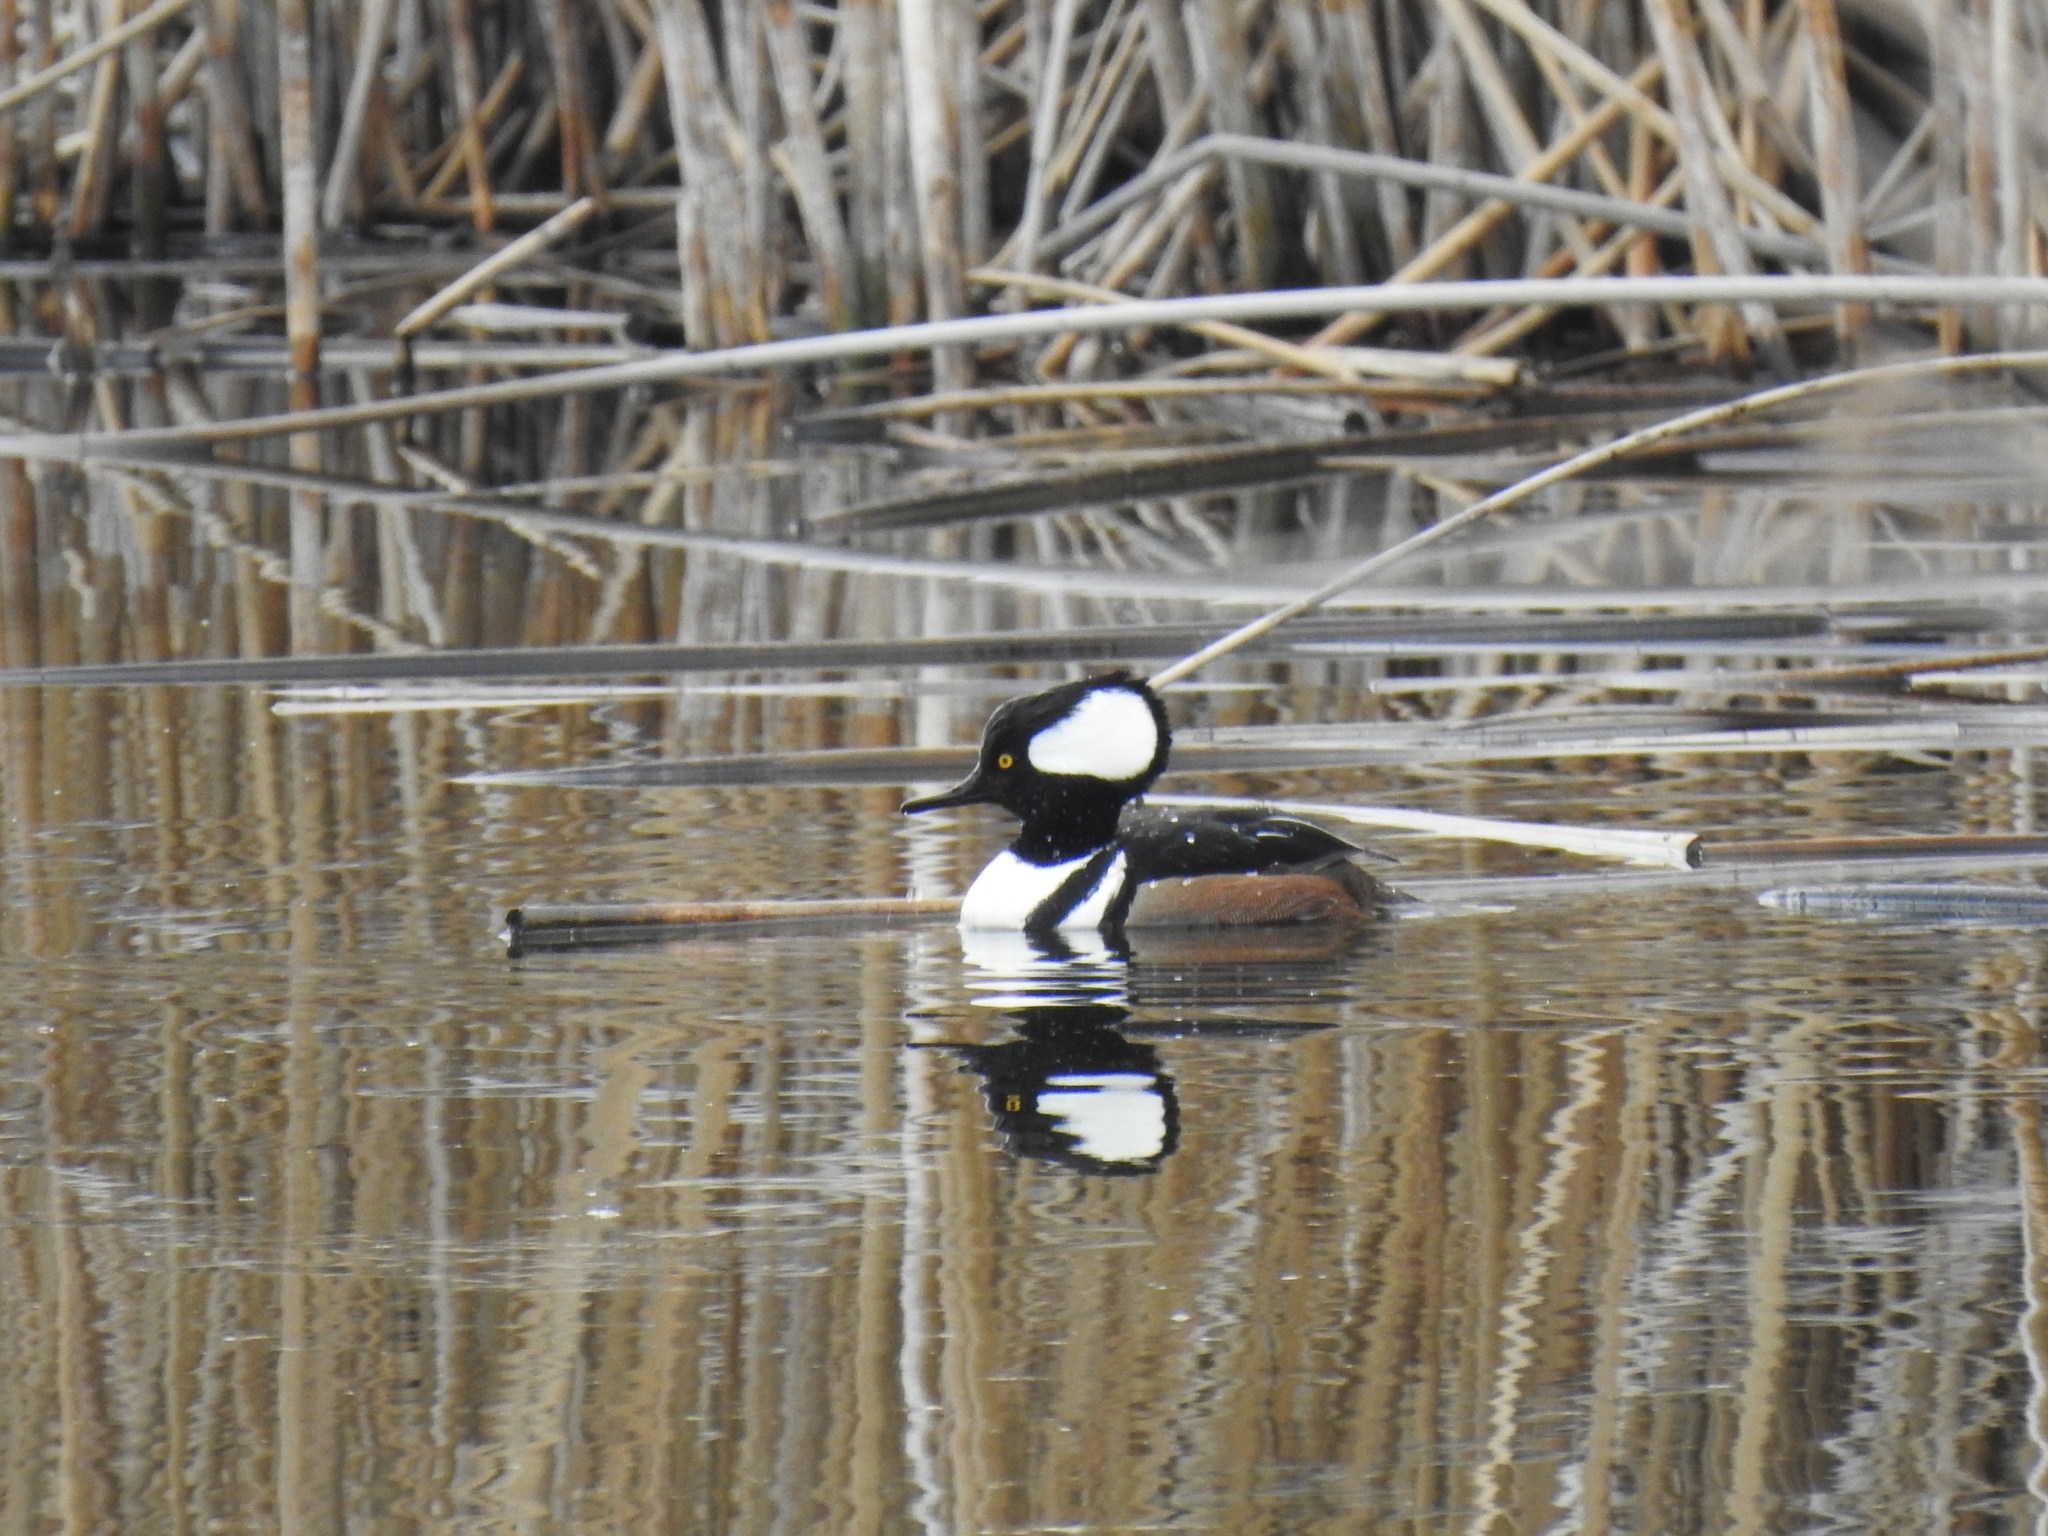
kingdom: Animalia
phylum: Chordata
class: Aves
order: Anseriformes
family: Anatidae
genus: Lophodytes
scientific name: Lophodytes cucullatus
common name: Hooded merganser
